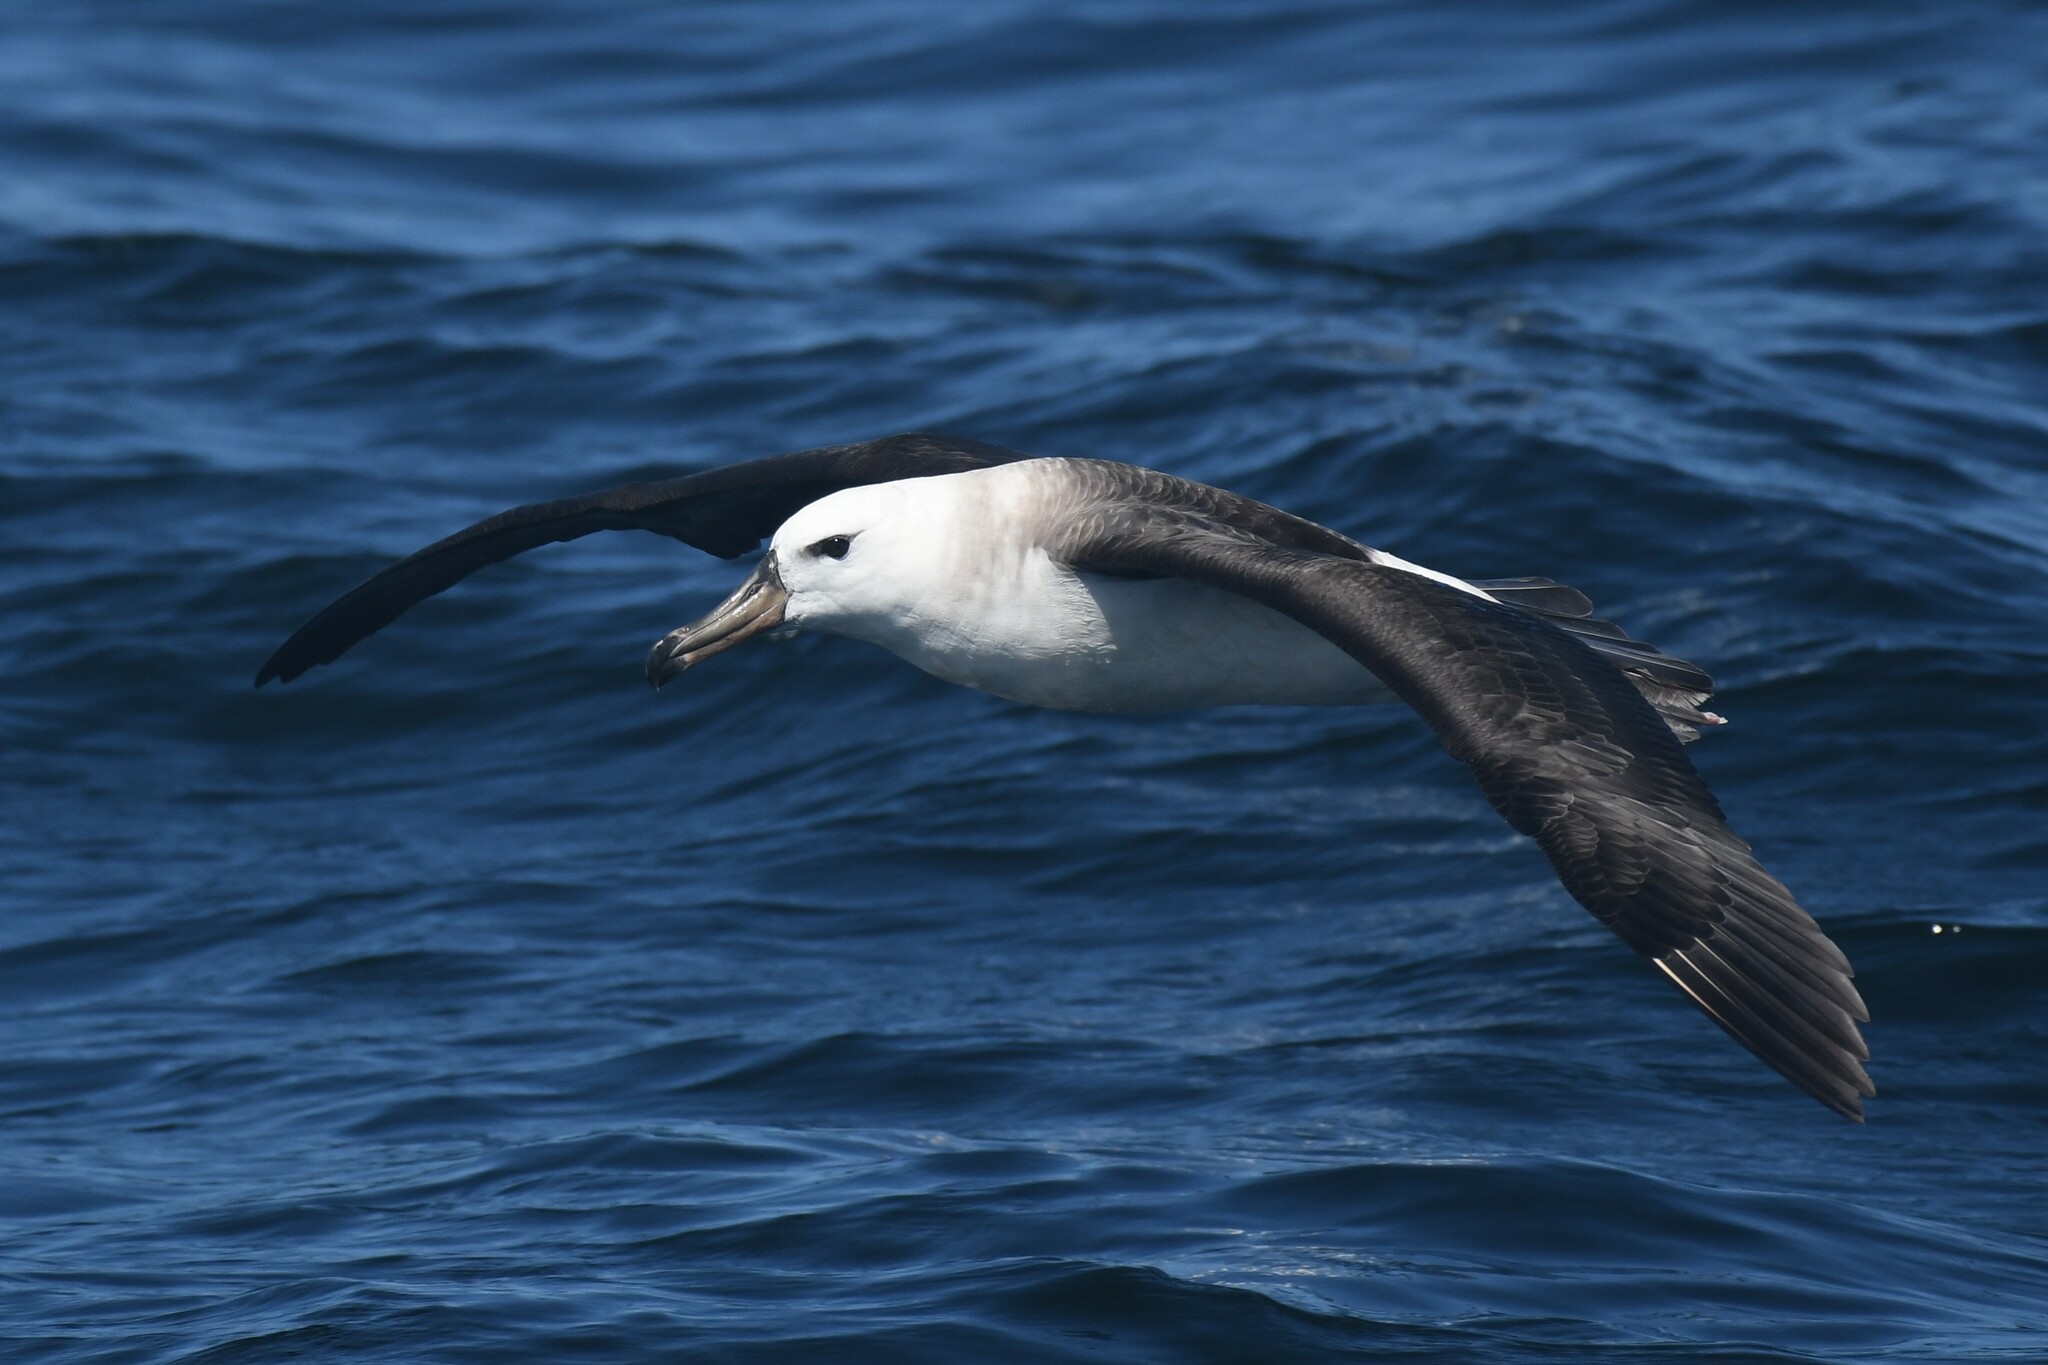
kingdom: Animalia
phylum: Chordata
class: Aves
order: Procellariiformes
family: Diomedeidae
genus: Thalassarche
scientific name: Thalassarche melanophris
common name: Black-browed albatross
